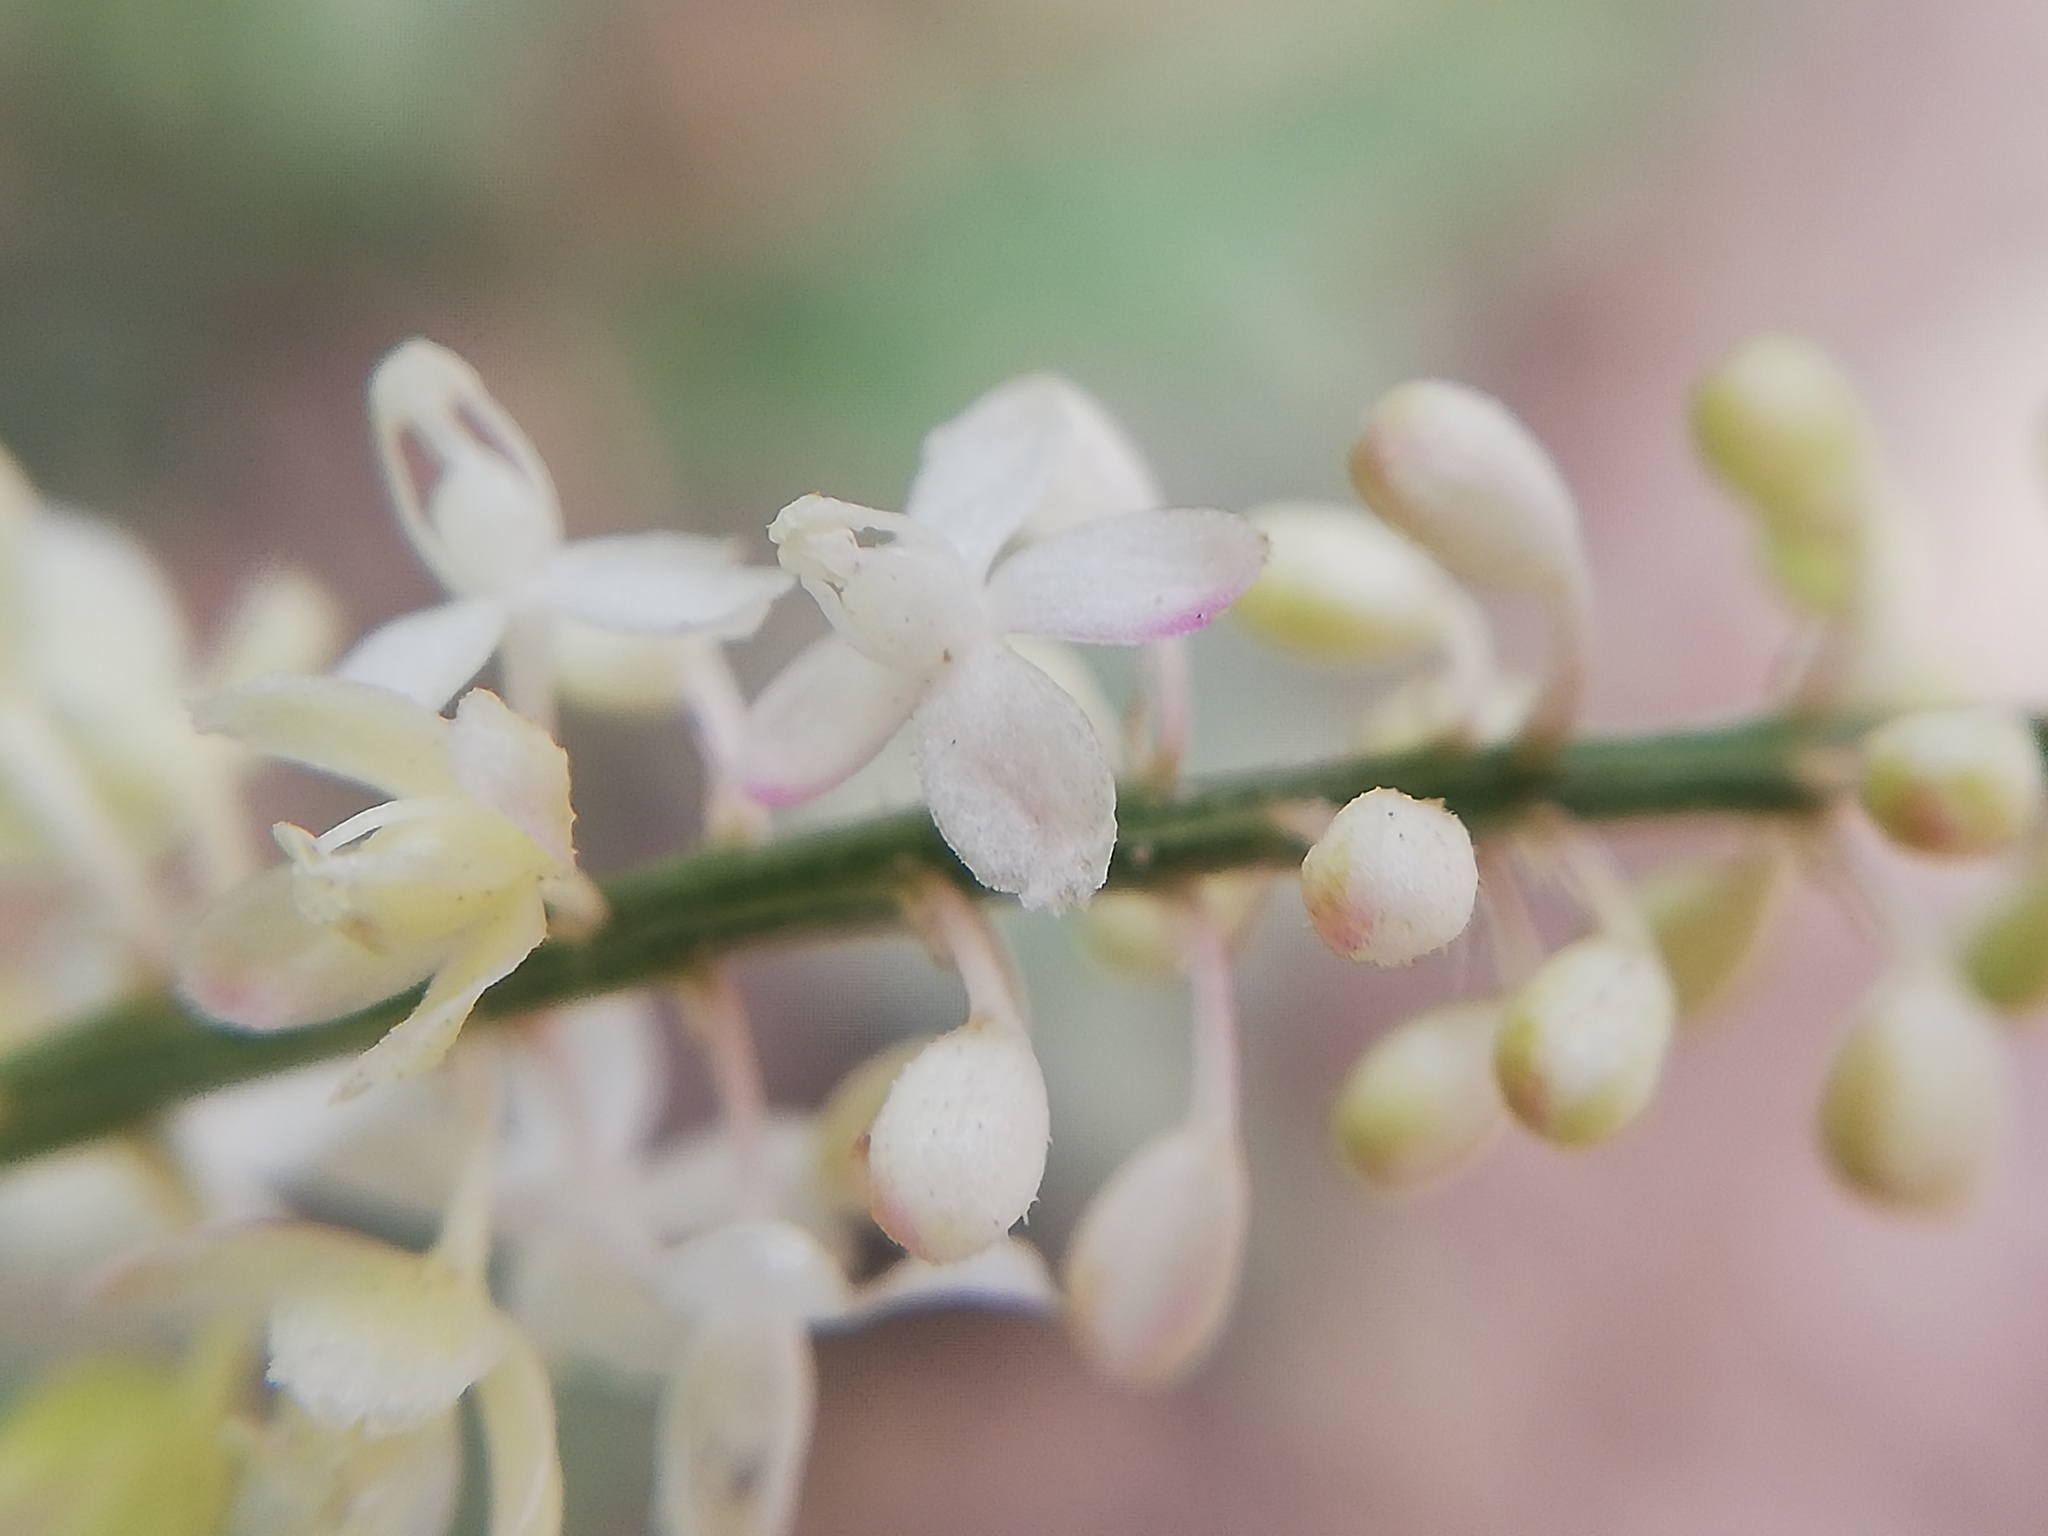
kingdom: Plantae
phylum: Tracheophyta
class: Magnoliopsida
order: Caryophyllales
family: Phytolaccaceae
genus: Rivina
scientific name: Rivina humilis
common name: Rougeplant
